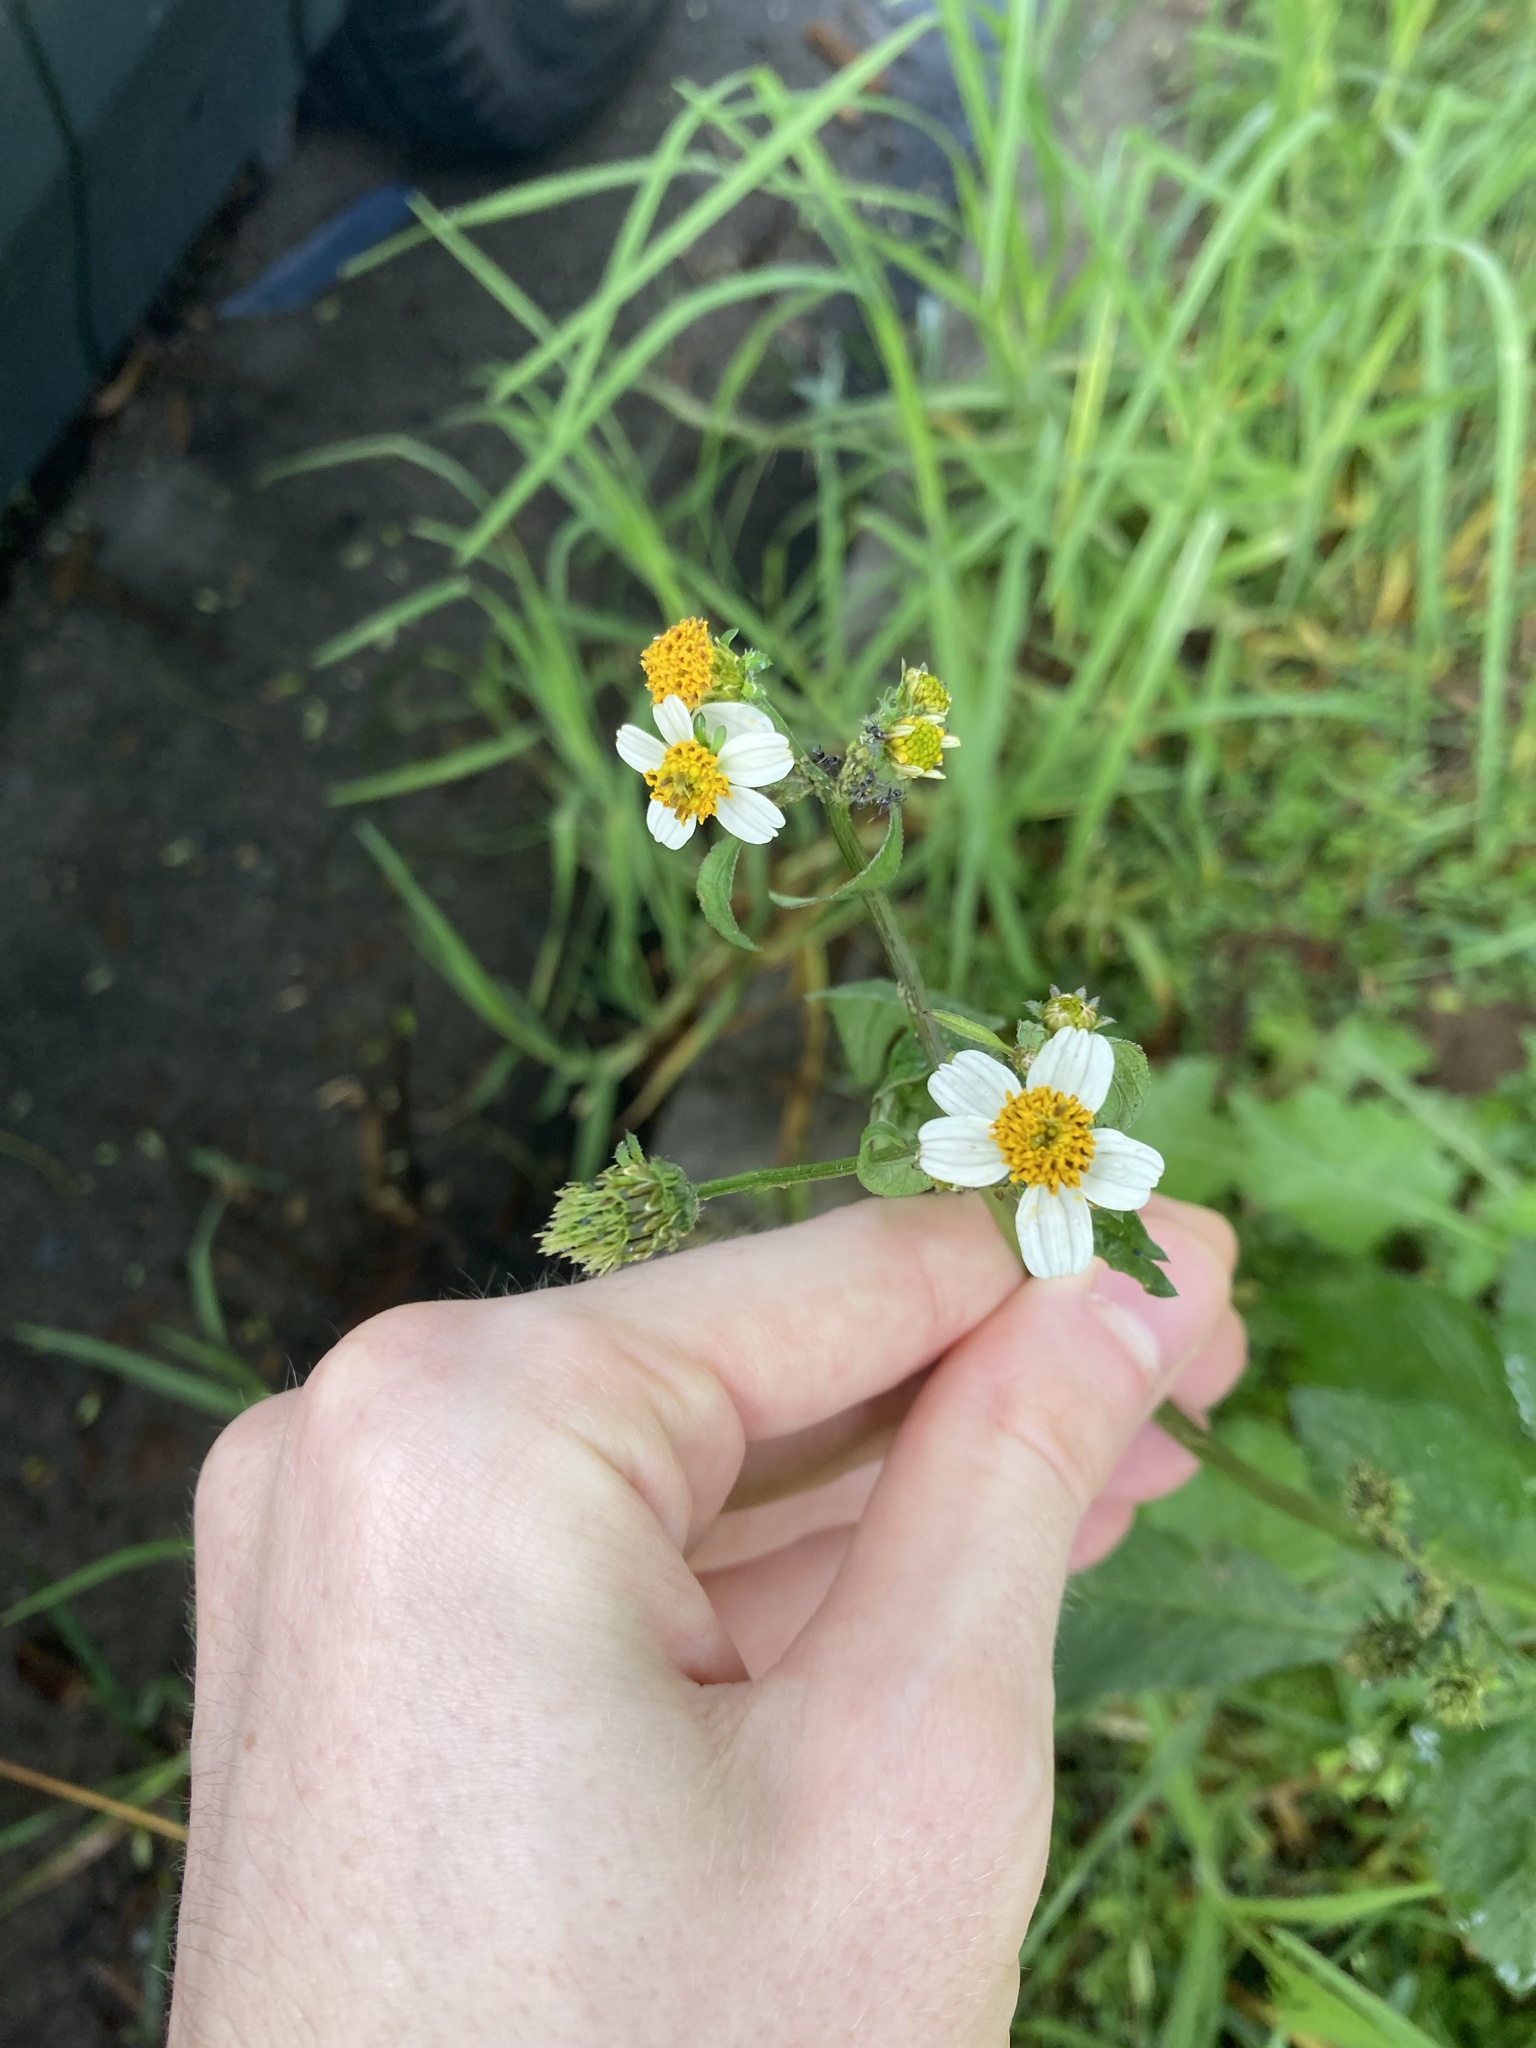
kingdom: Plantae
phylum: Tracheophyta
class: Magnoliopsida
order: Asterales
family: Asteraceae
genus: Bidens
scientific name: Bidens alba
